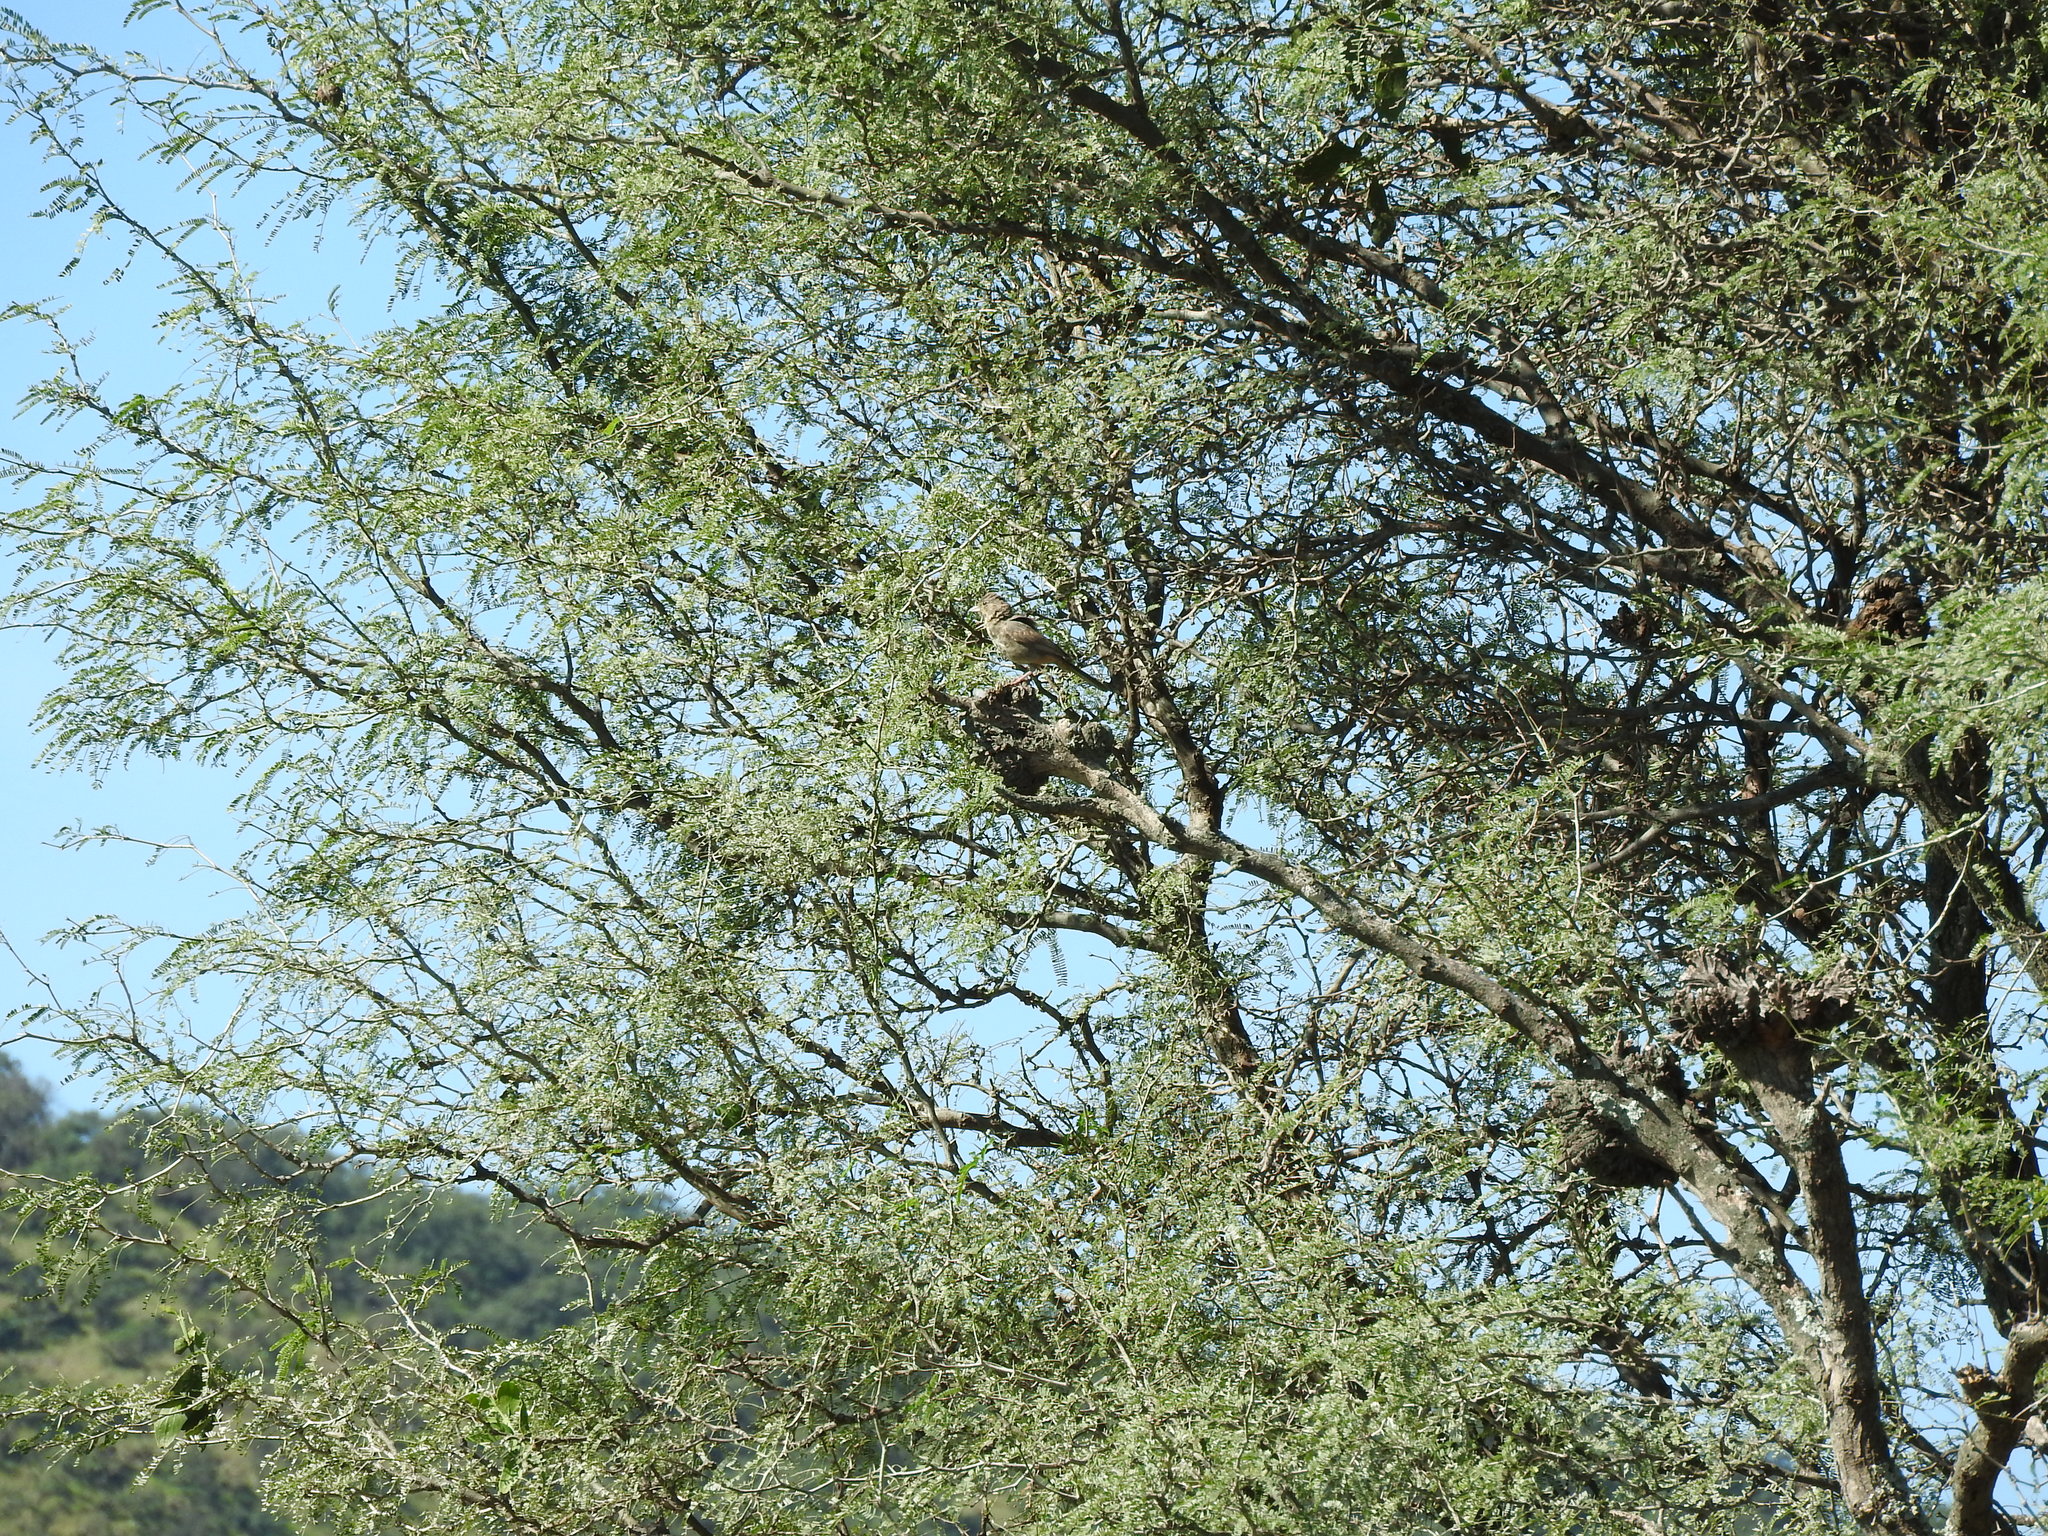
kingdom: Animalia
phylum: Chordata
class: Aves
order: Passeriformes
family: Passerellidae
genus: Melozone
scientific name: Melozone fusca
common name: Canyon towhee
